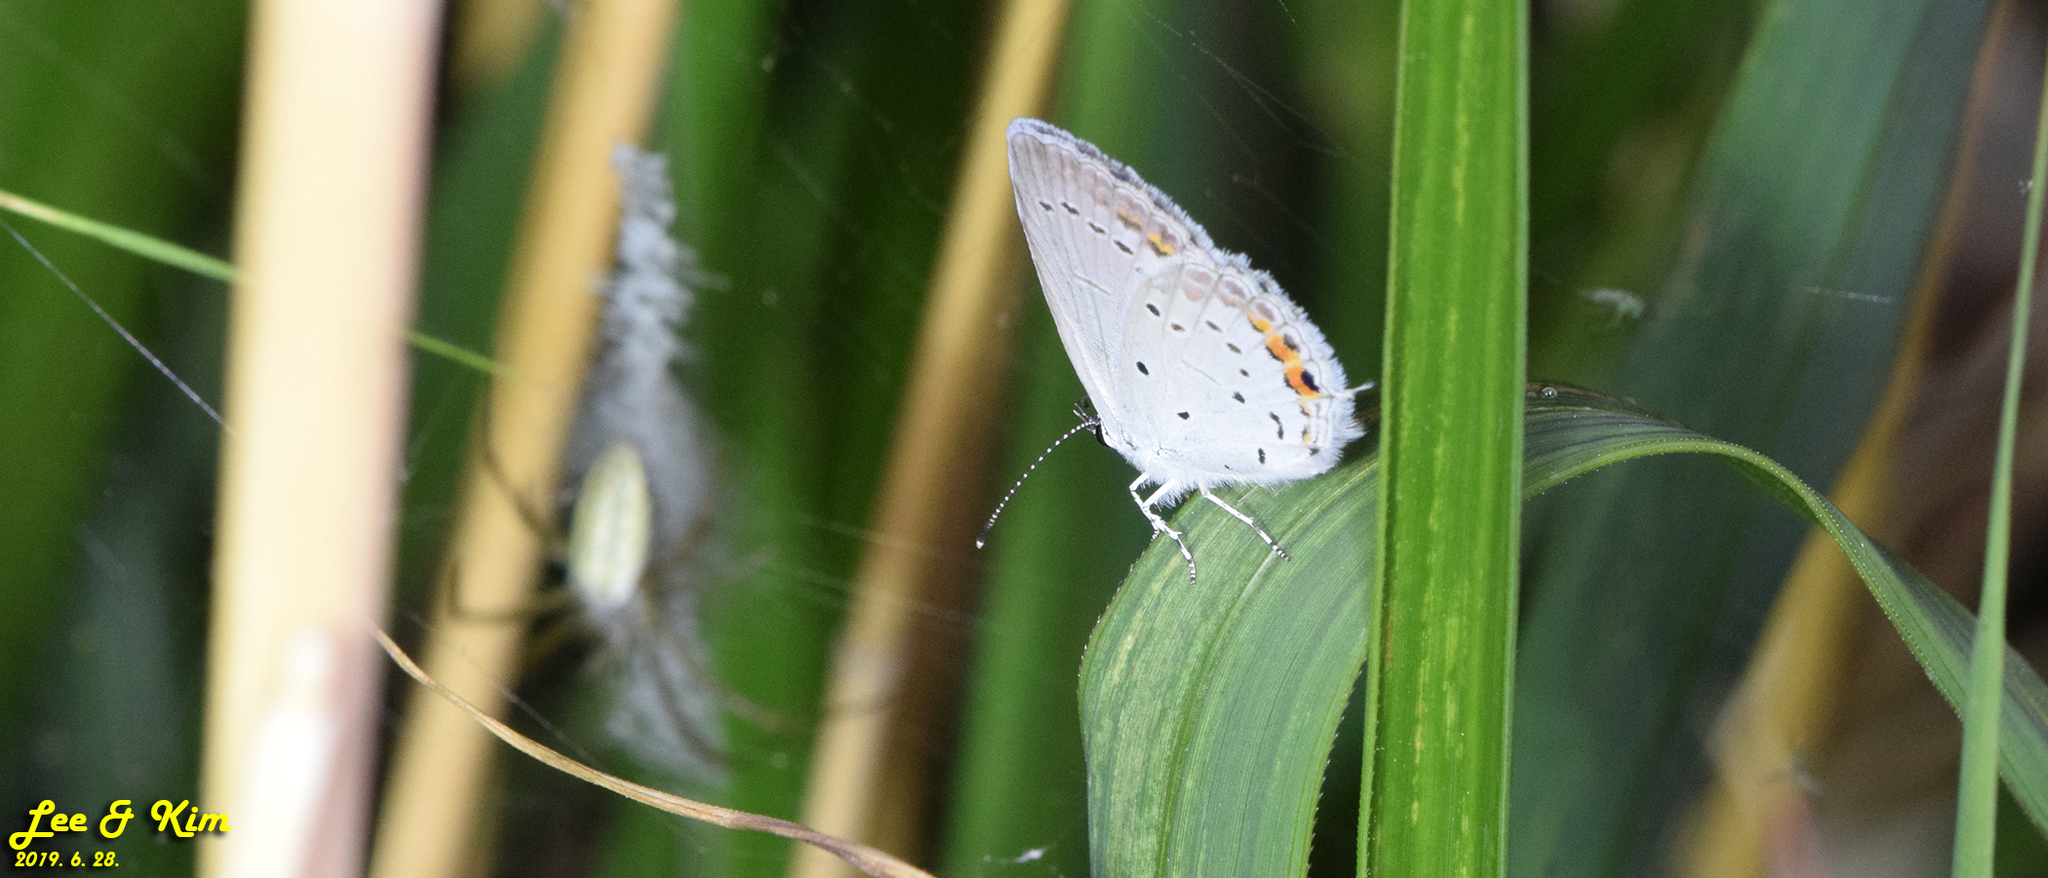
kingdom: Animalia
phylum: Arthropoda
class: Insecta
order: Lepidoptera
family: Lycaenidae
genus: Elkalyce
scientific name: Elkalyce argiades
